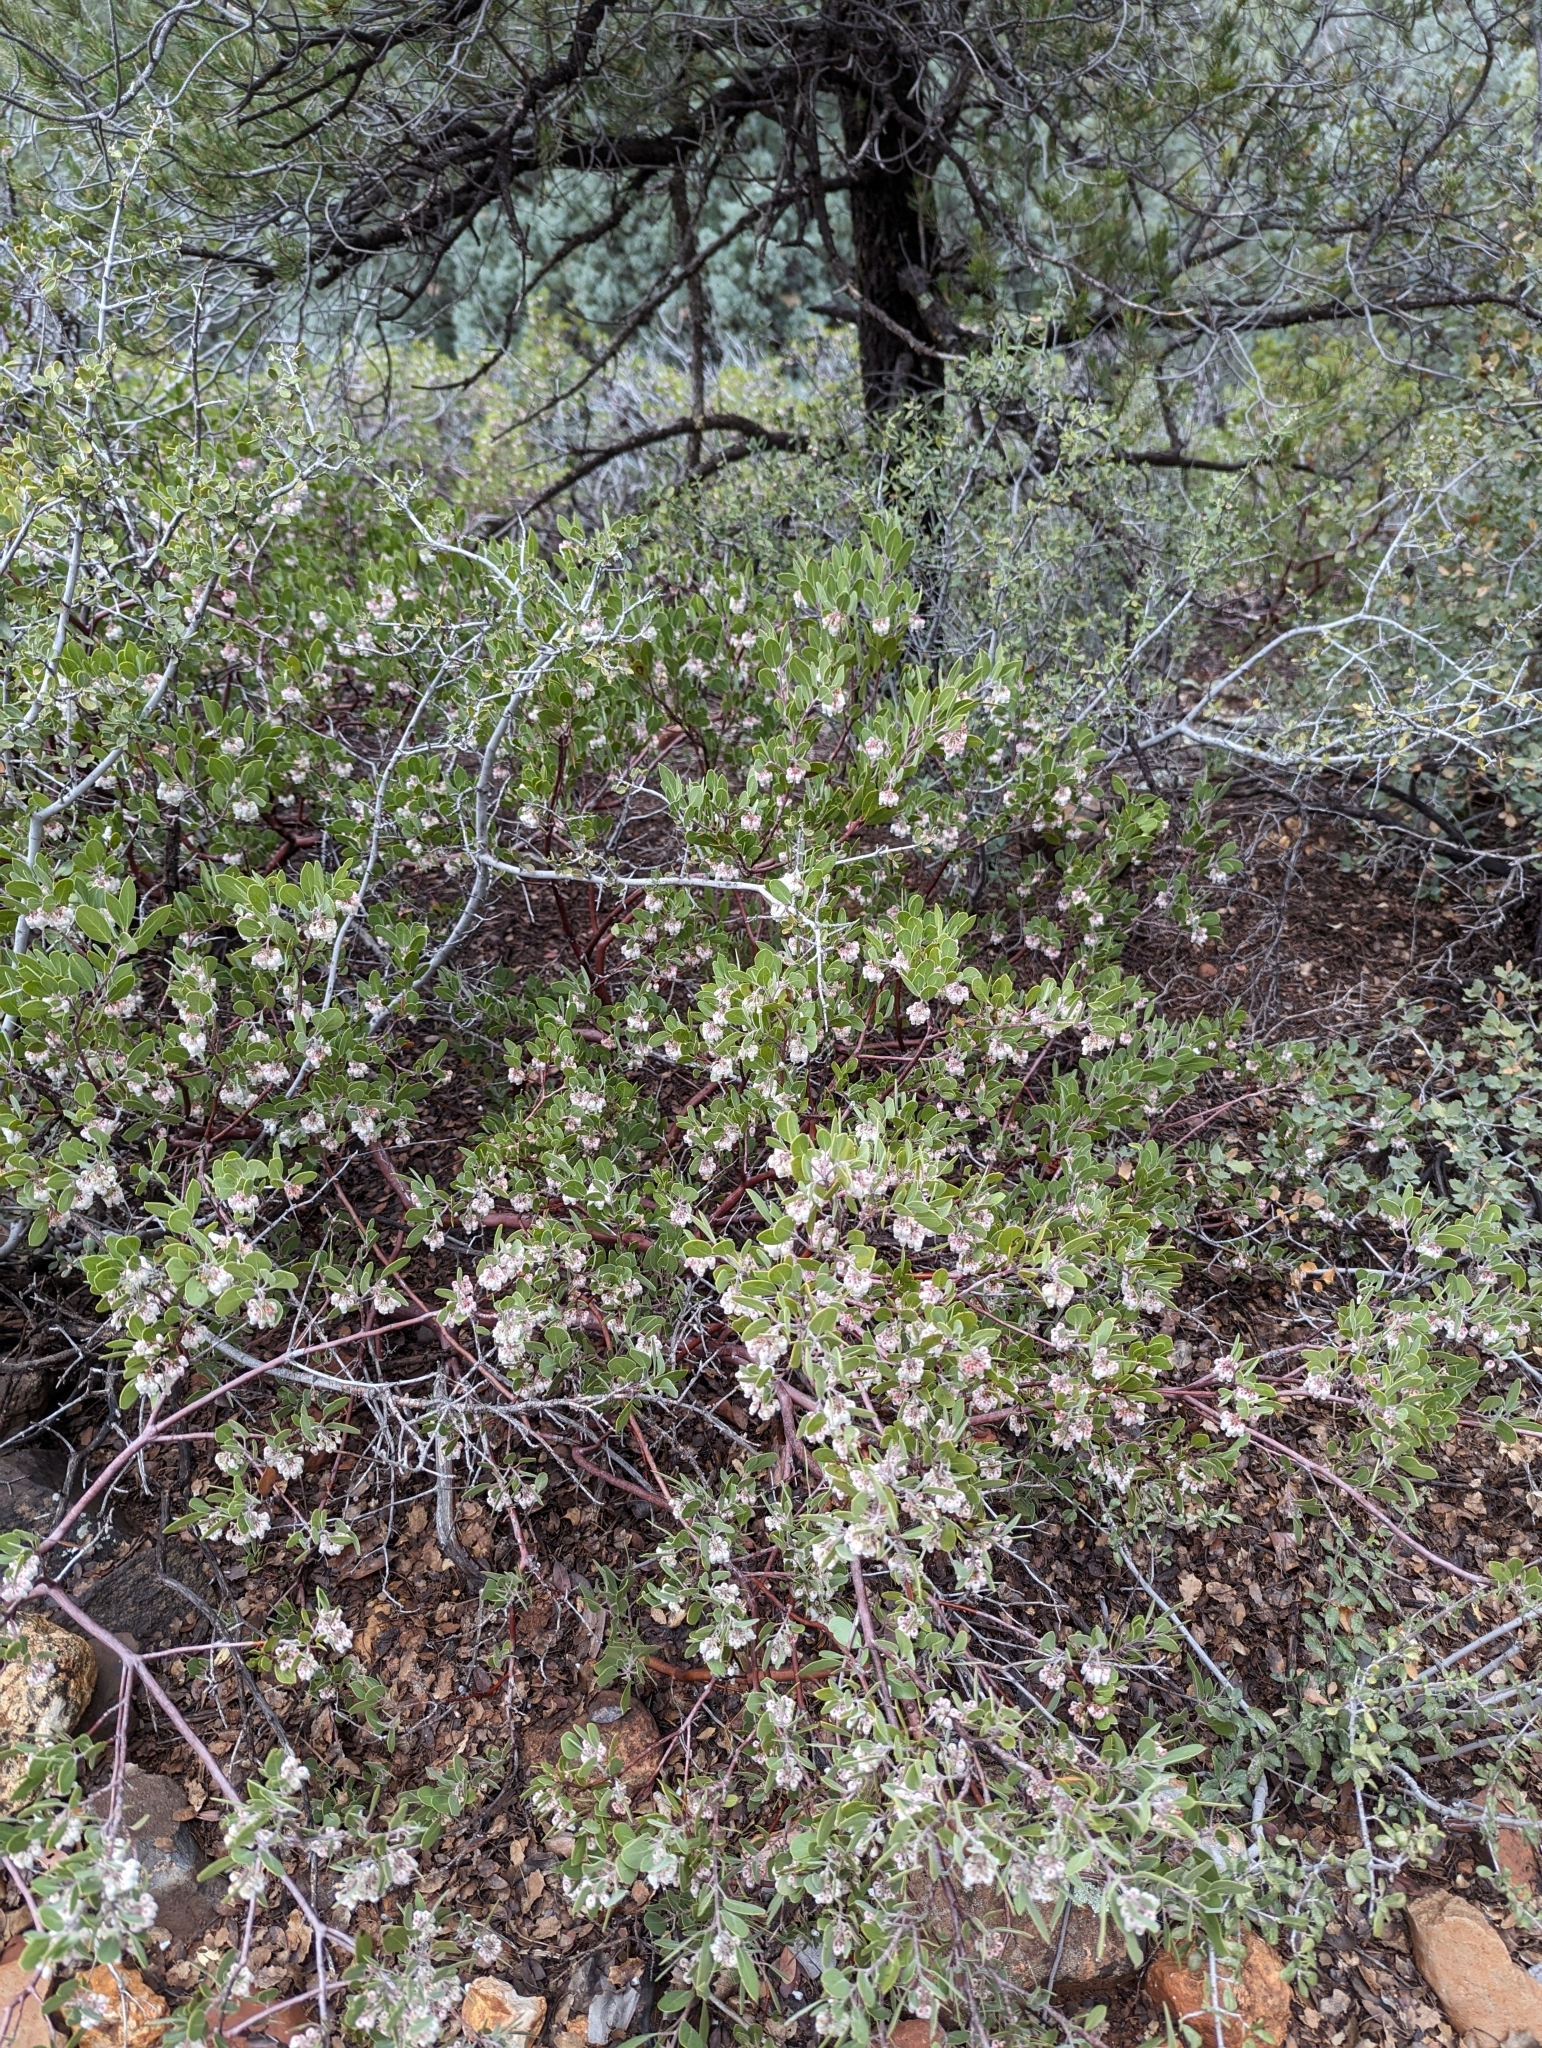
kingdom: Plantae
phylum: Tracheophyta
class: Magnoliopsida
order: Ericales
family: Ericaceae
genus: Arctostaphylos
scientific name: Arctostaphylos pungens
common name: Mexican manzanita
